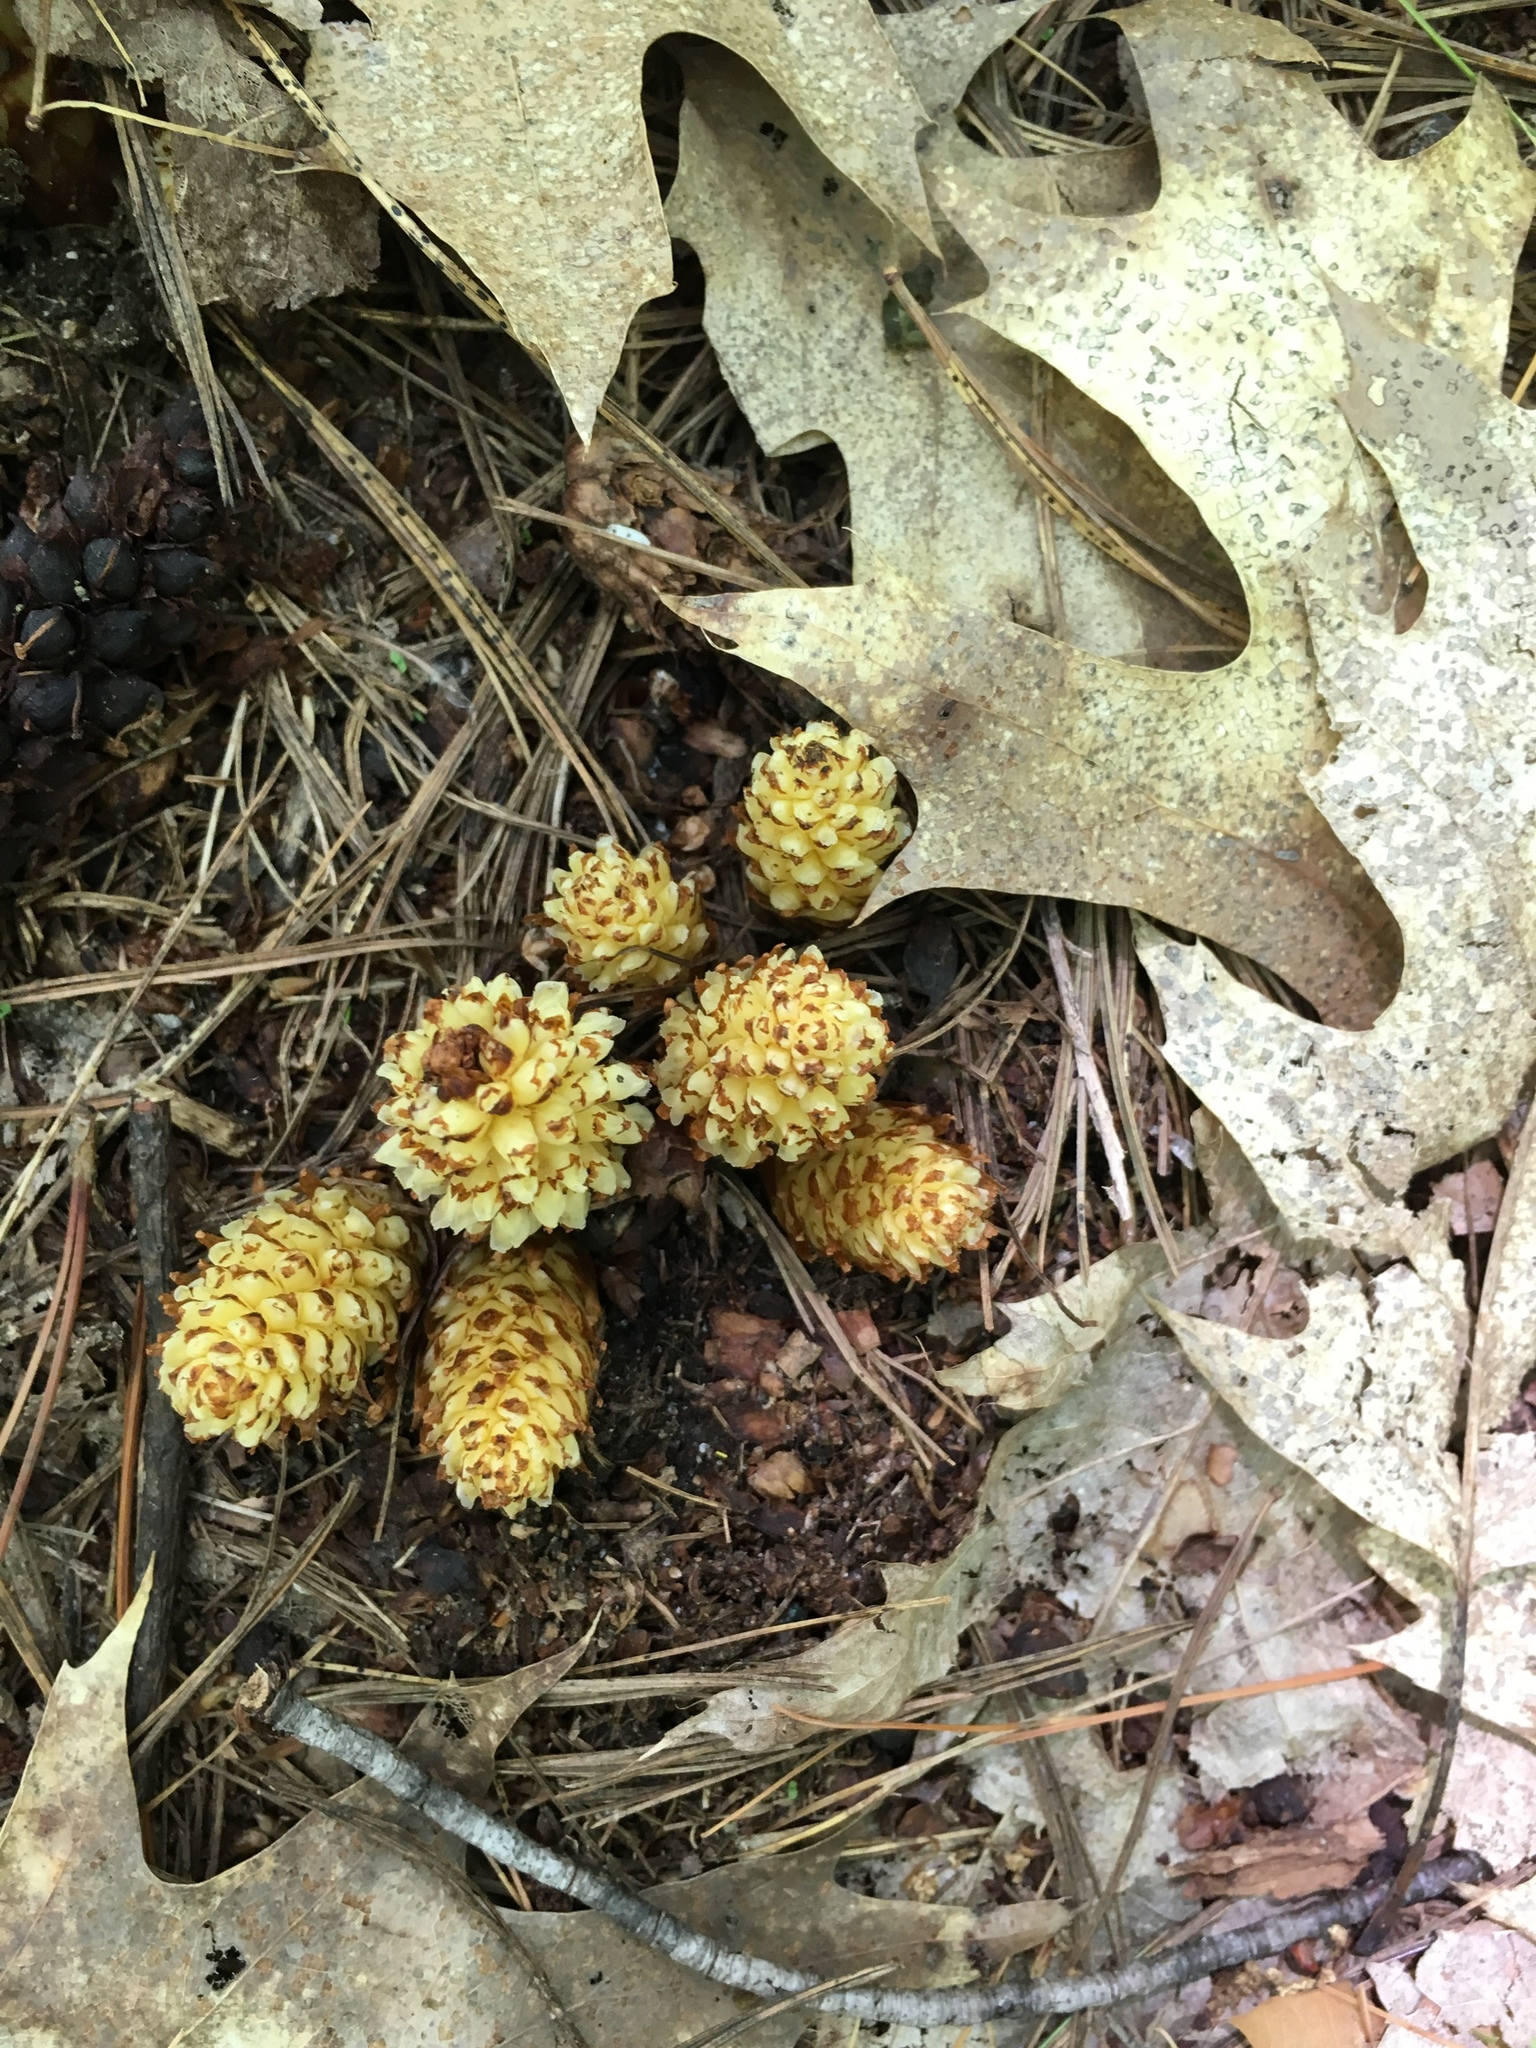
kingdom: Plantae
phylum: Tracheophyta
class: Magnoliopsida
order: Lamiales
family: Orobanchaceae
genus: Conopholis
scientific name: Conopholis americana
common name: American cancer-root
